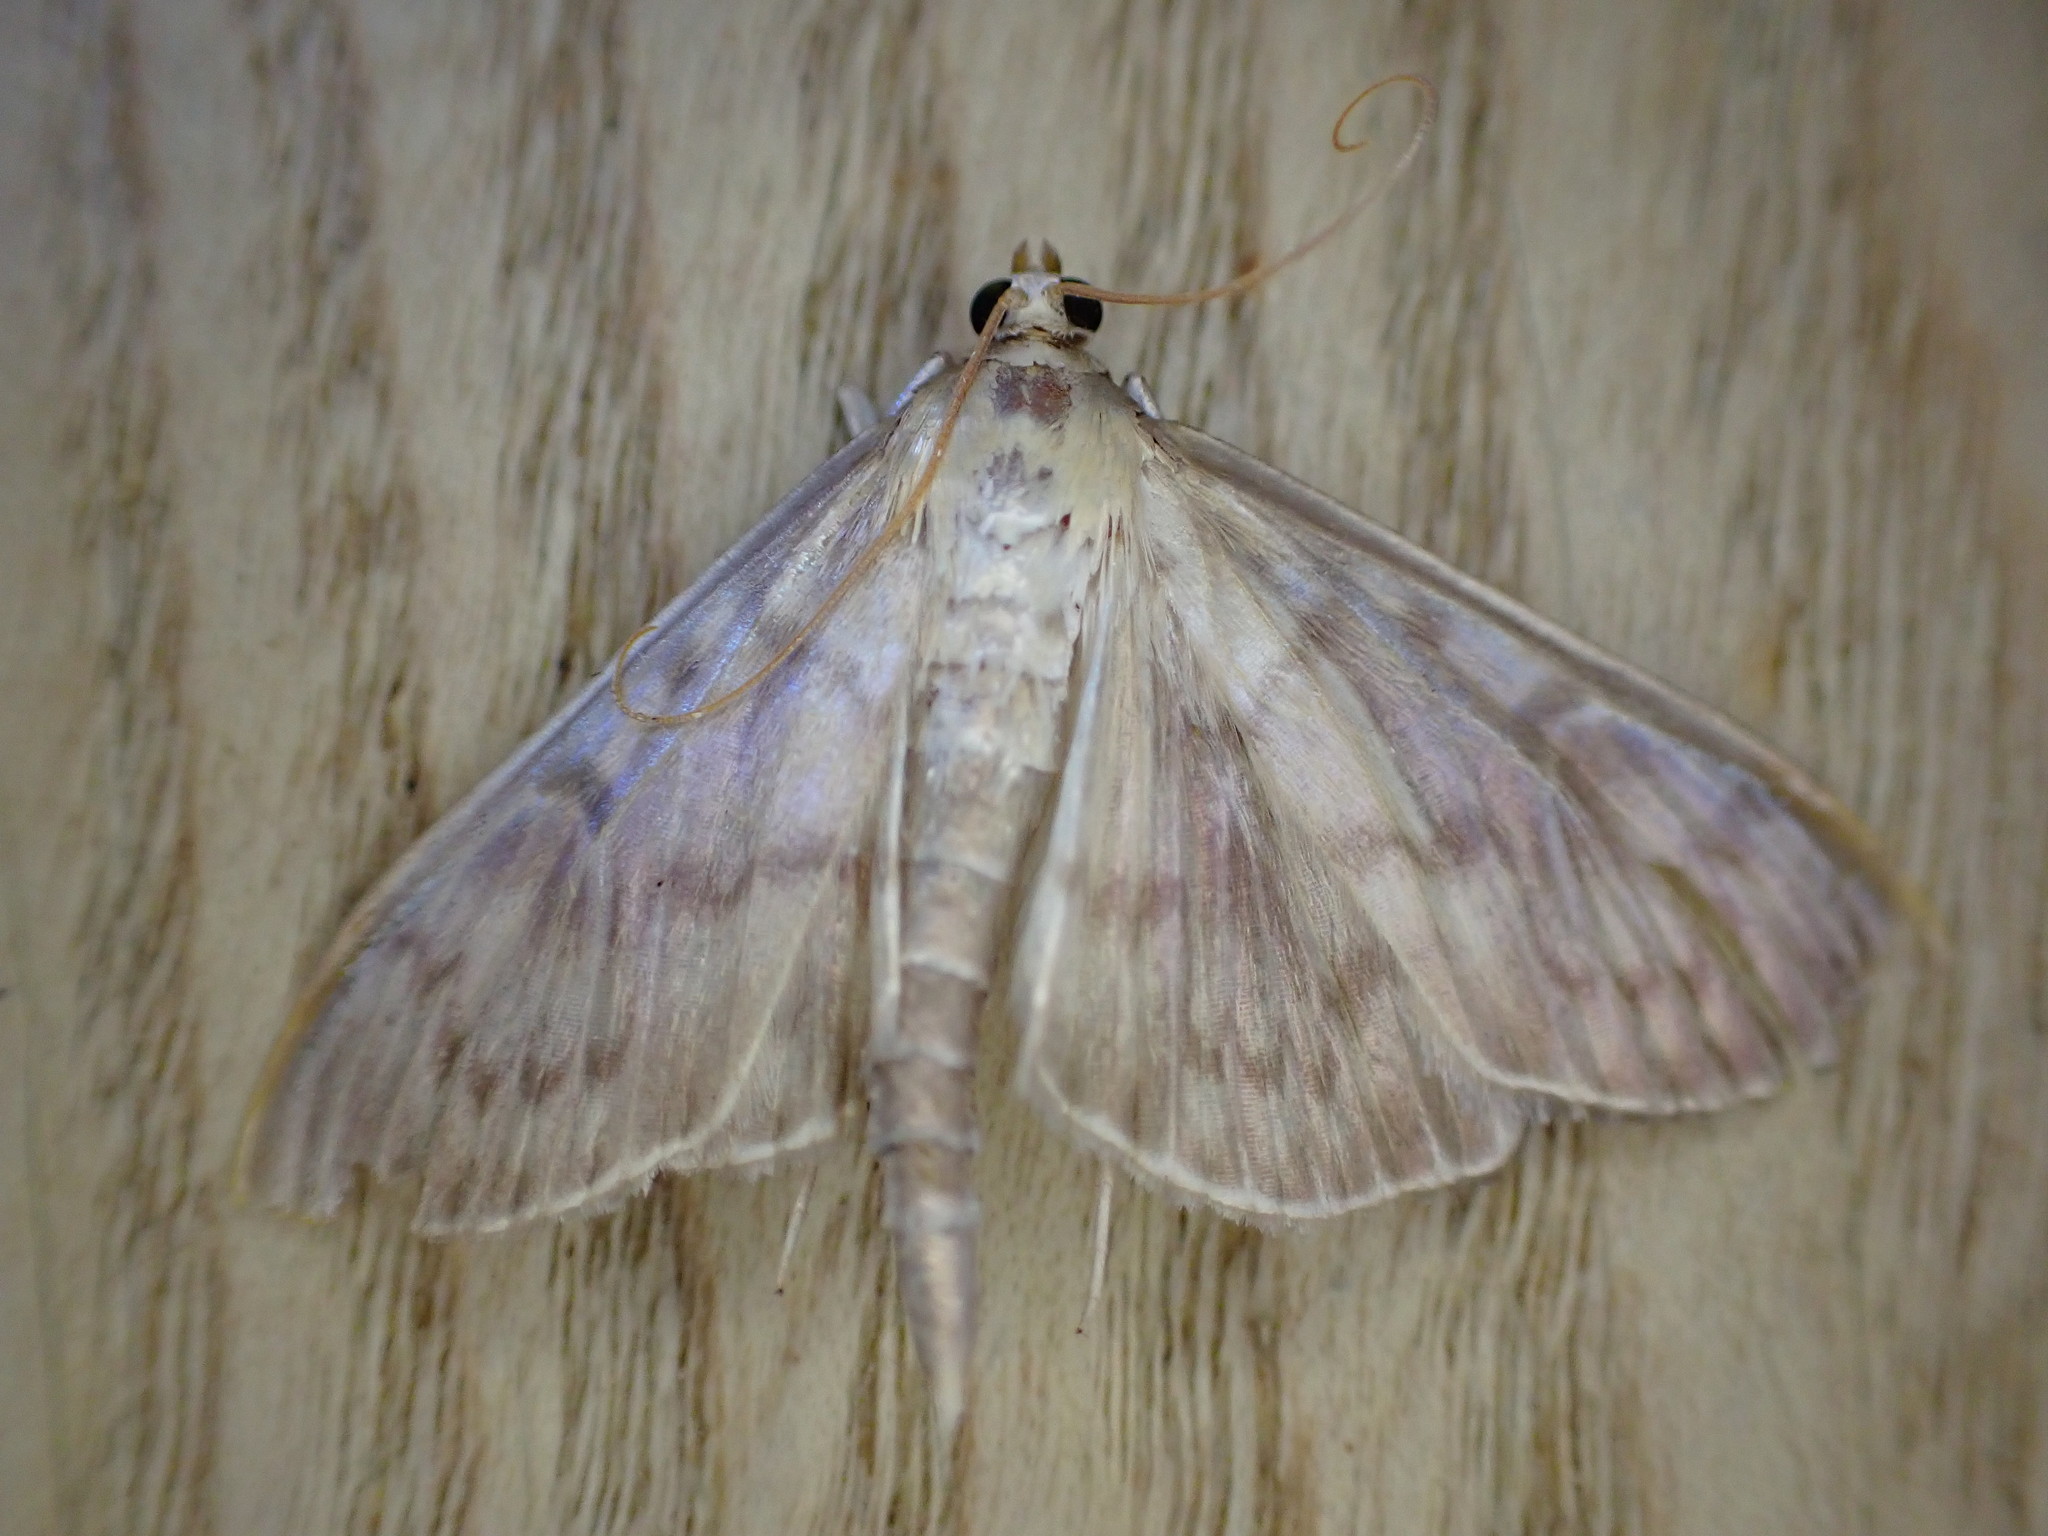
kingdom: Animalia
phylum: Arthropoda
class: Insecta
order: Lepidoptera
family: Crambidae
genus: Patania
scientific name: Patania ruralis
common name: Mother of pearl
